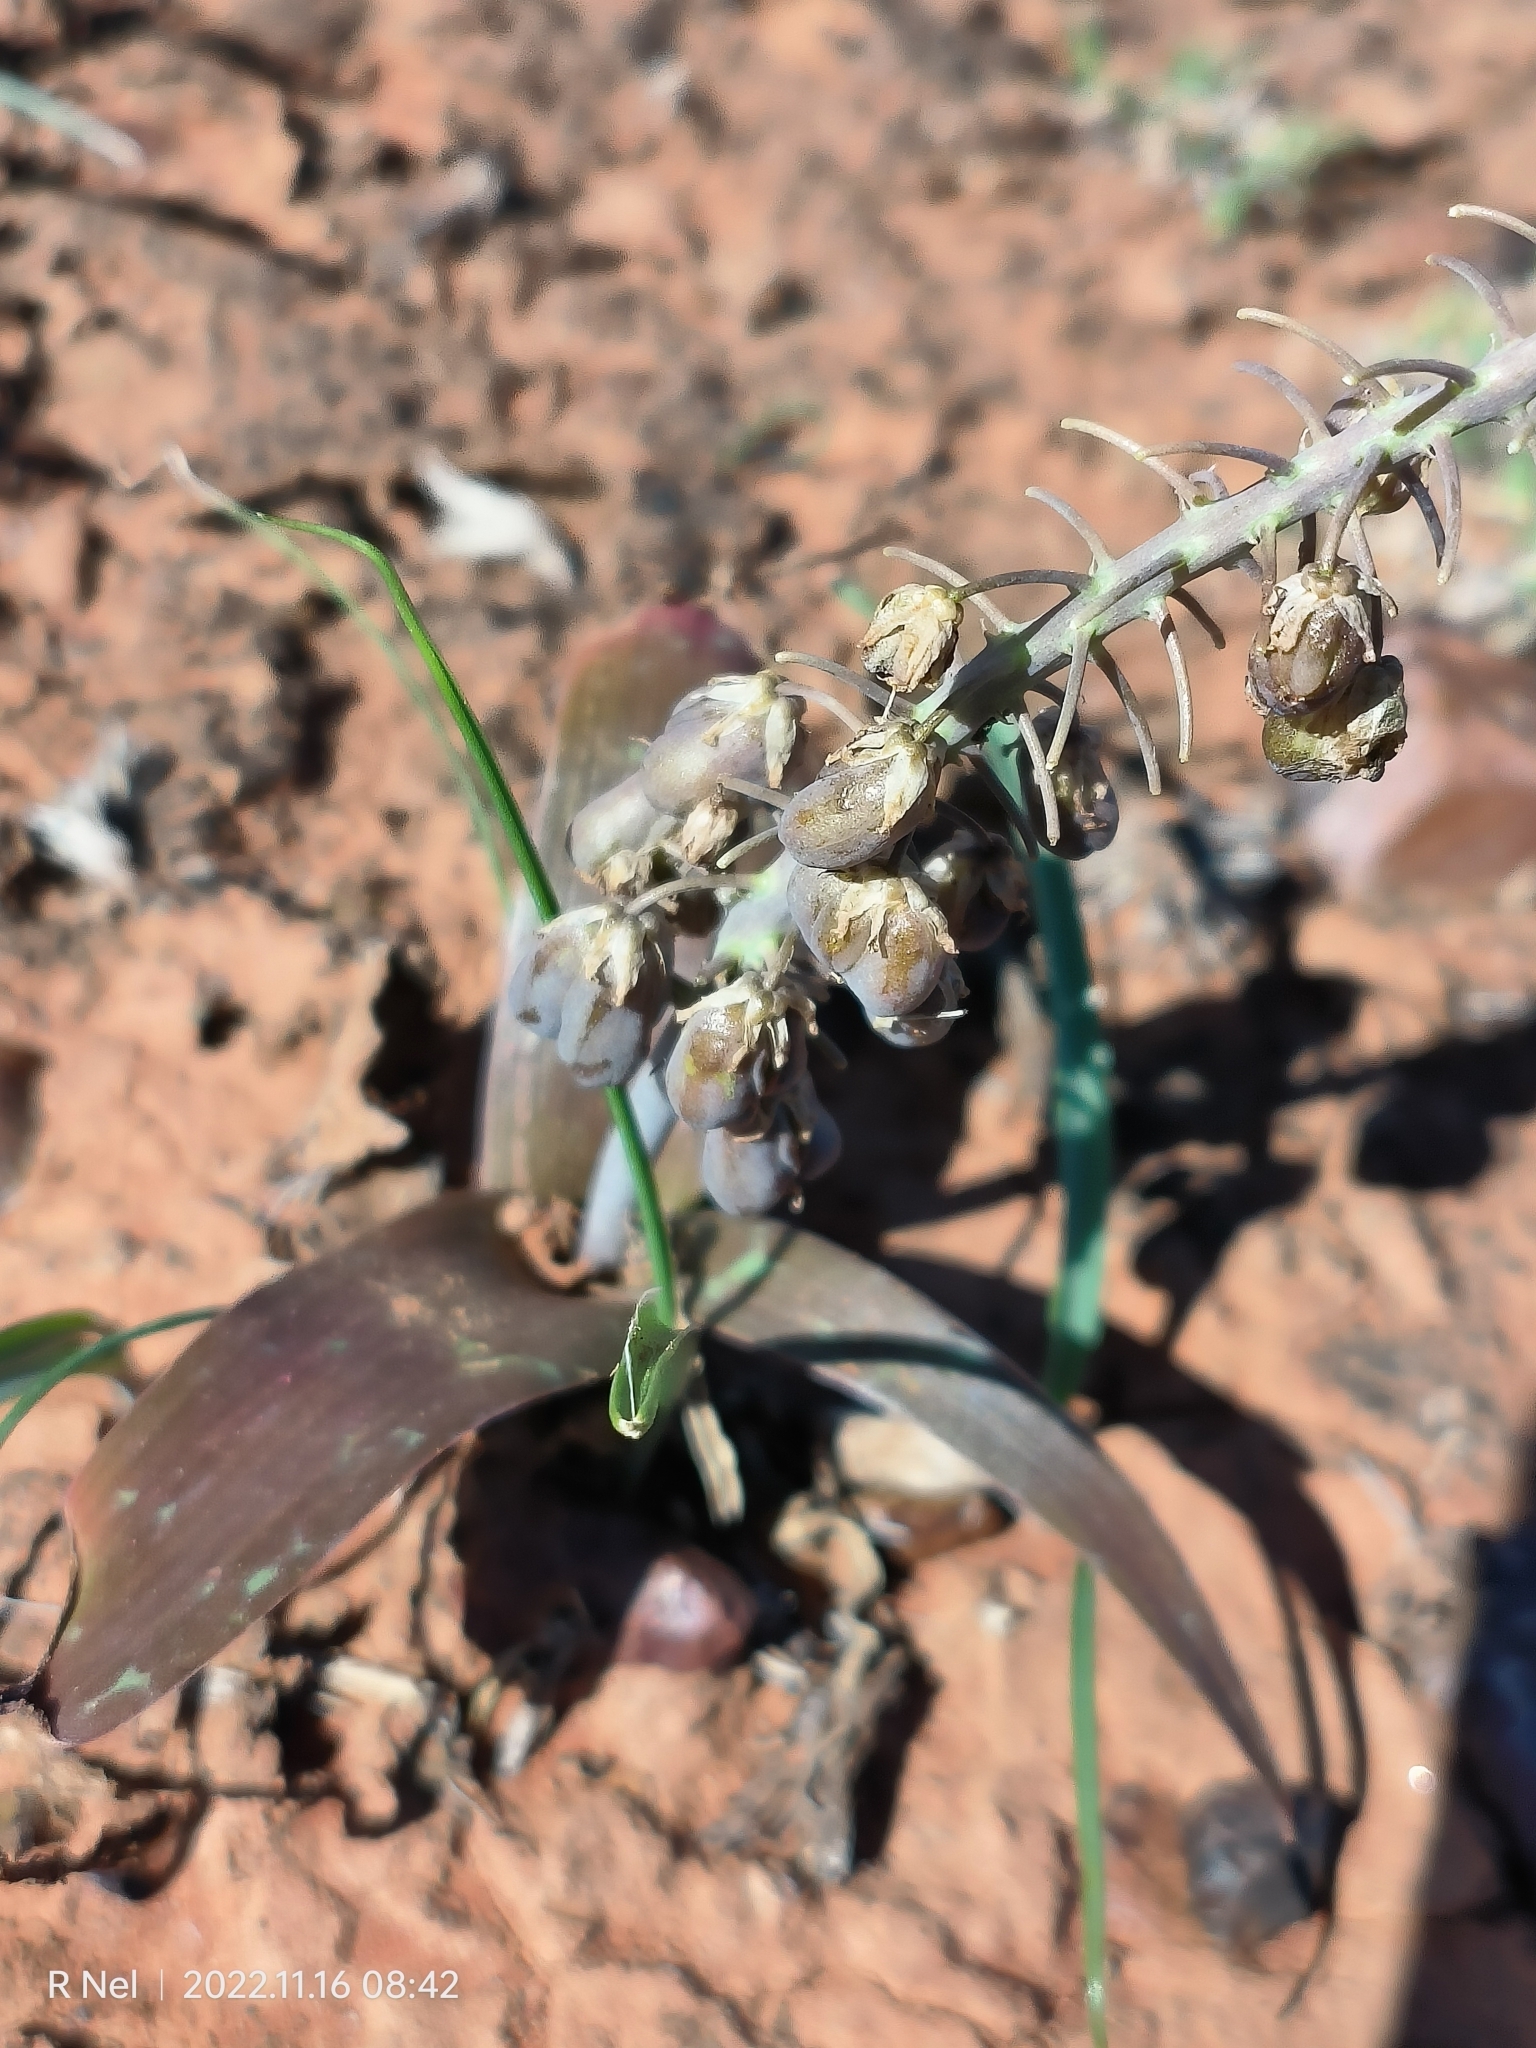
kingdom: Plantae
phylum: Tracheophyta
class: Liliopsida
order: Asparagales
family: Asparagaceae
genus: Ledebouria
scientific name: Ledebouria apertiflora
